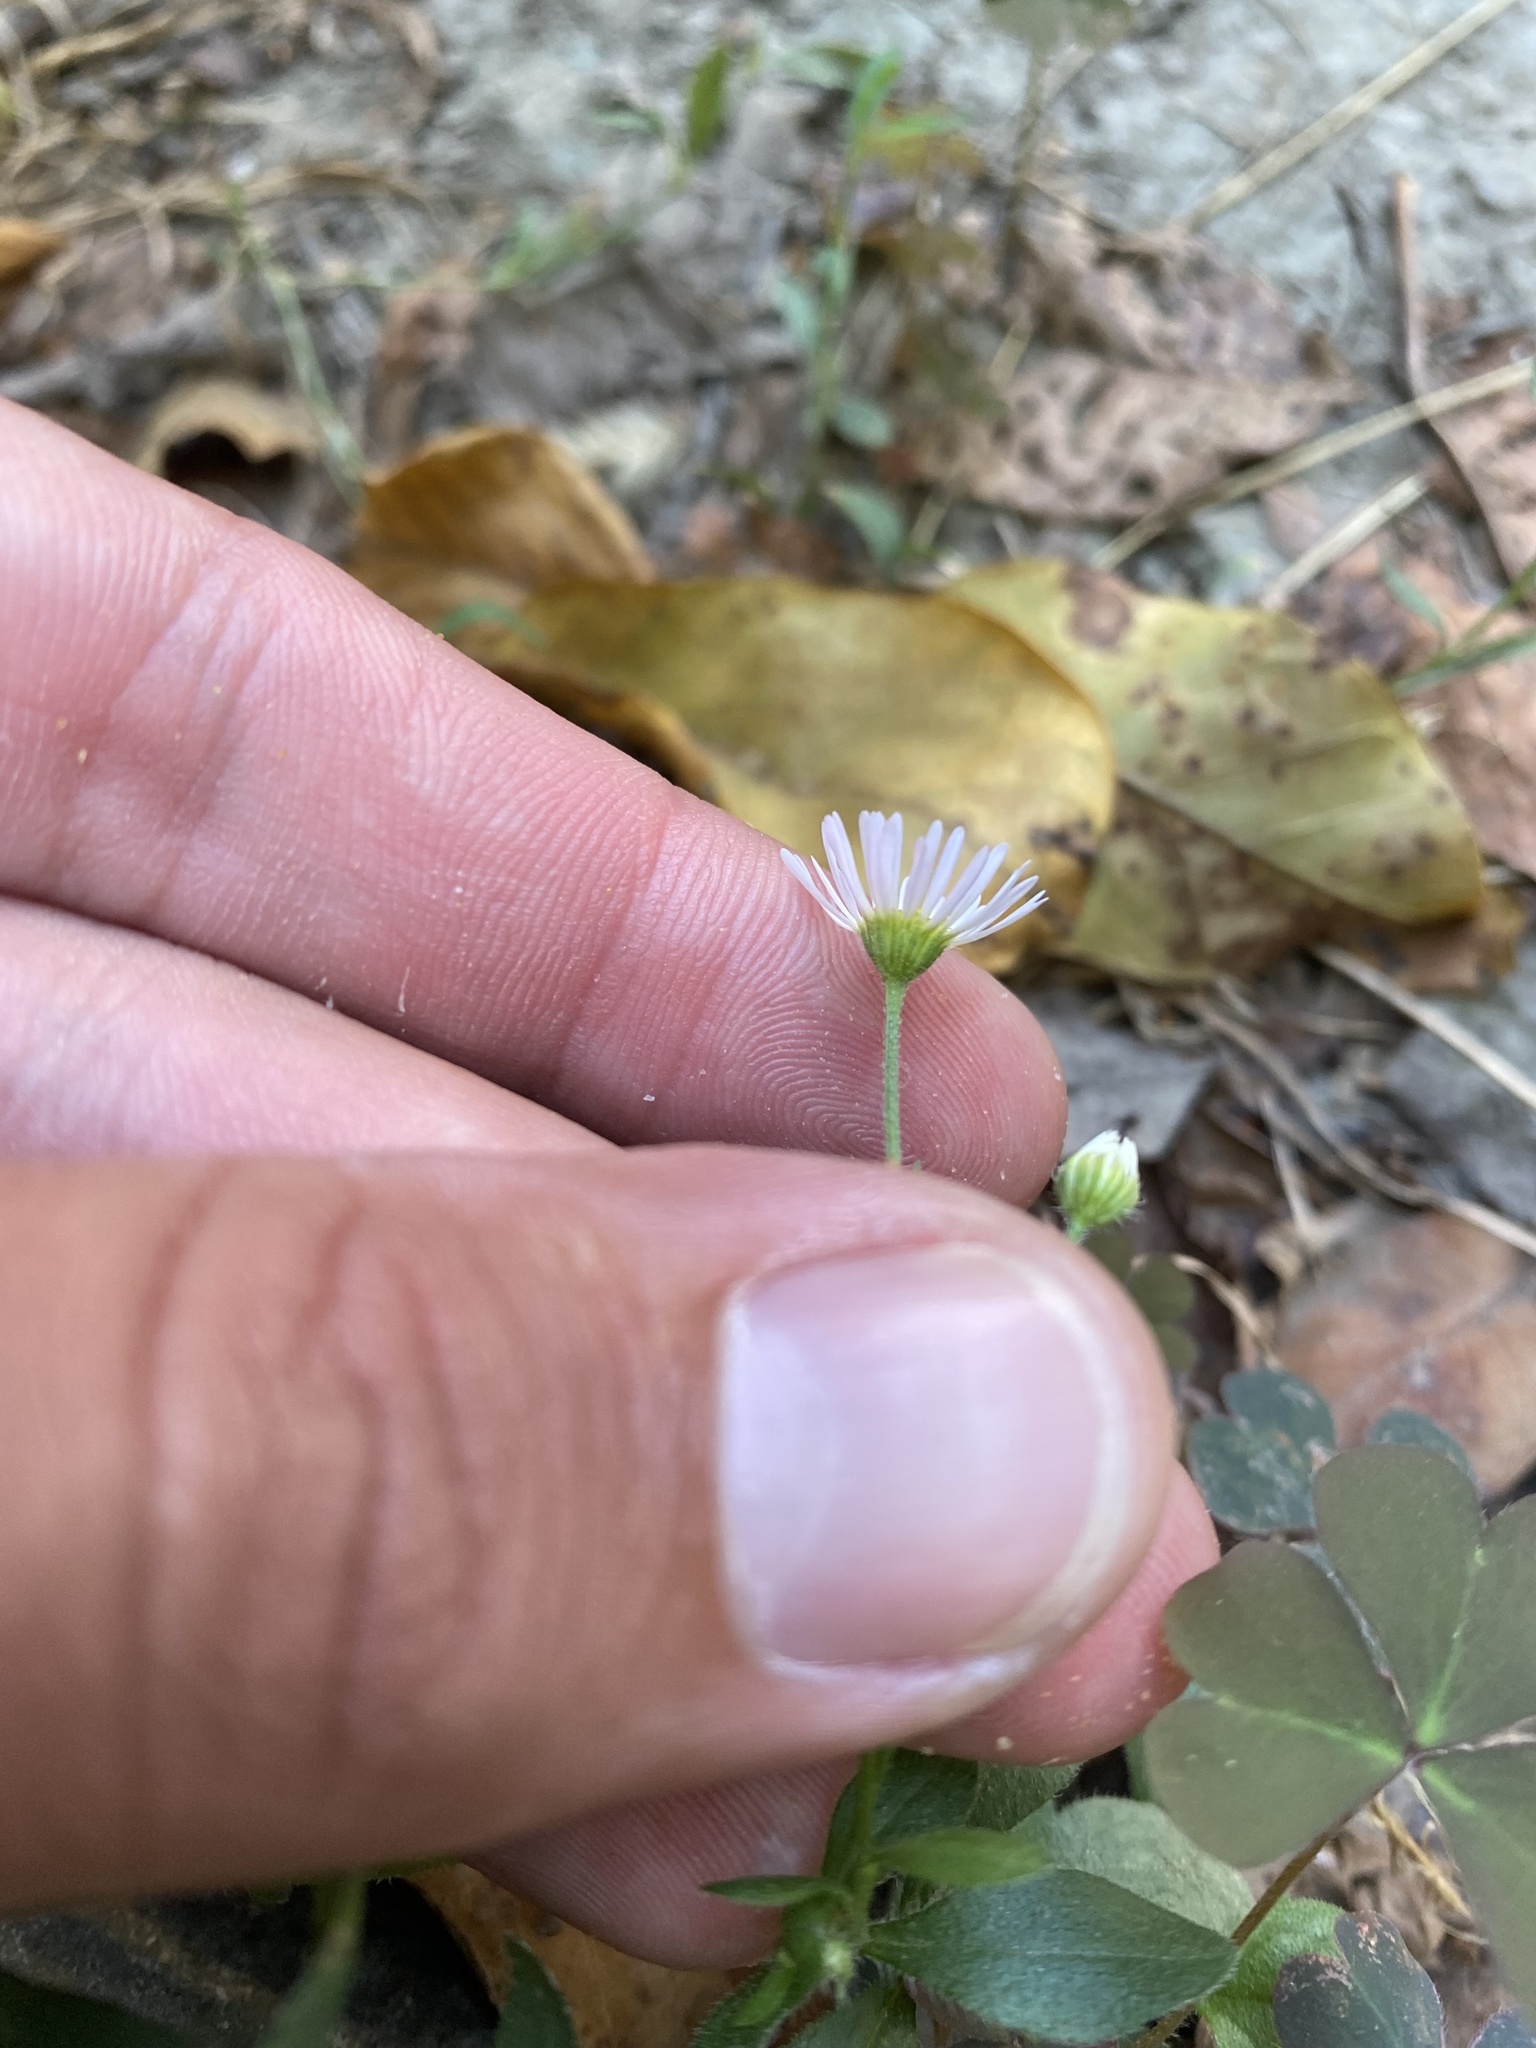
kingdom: Plantae
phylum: Tracheophyta
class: Magnoliopsida
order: Asterales
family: Asteraceae
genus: Erigeron
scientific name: Erigeron annuus
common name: Tall fleabane
